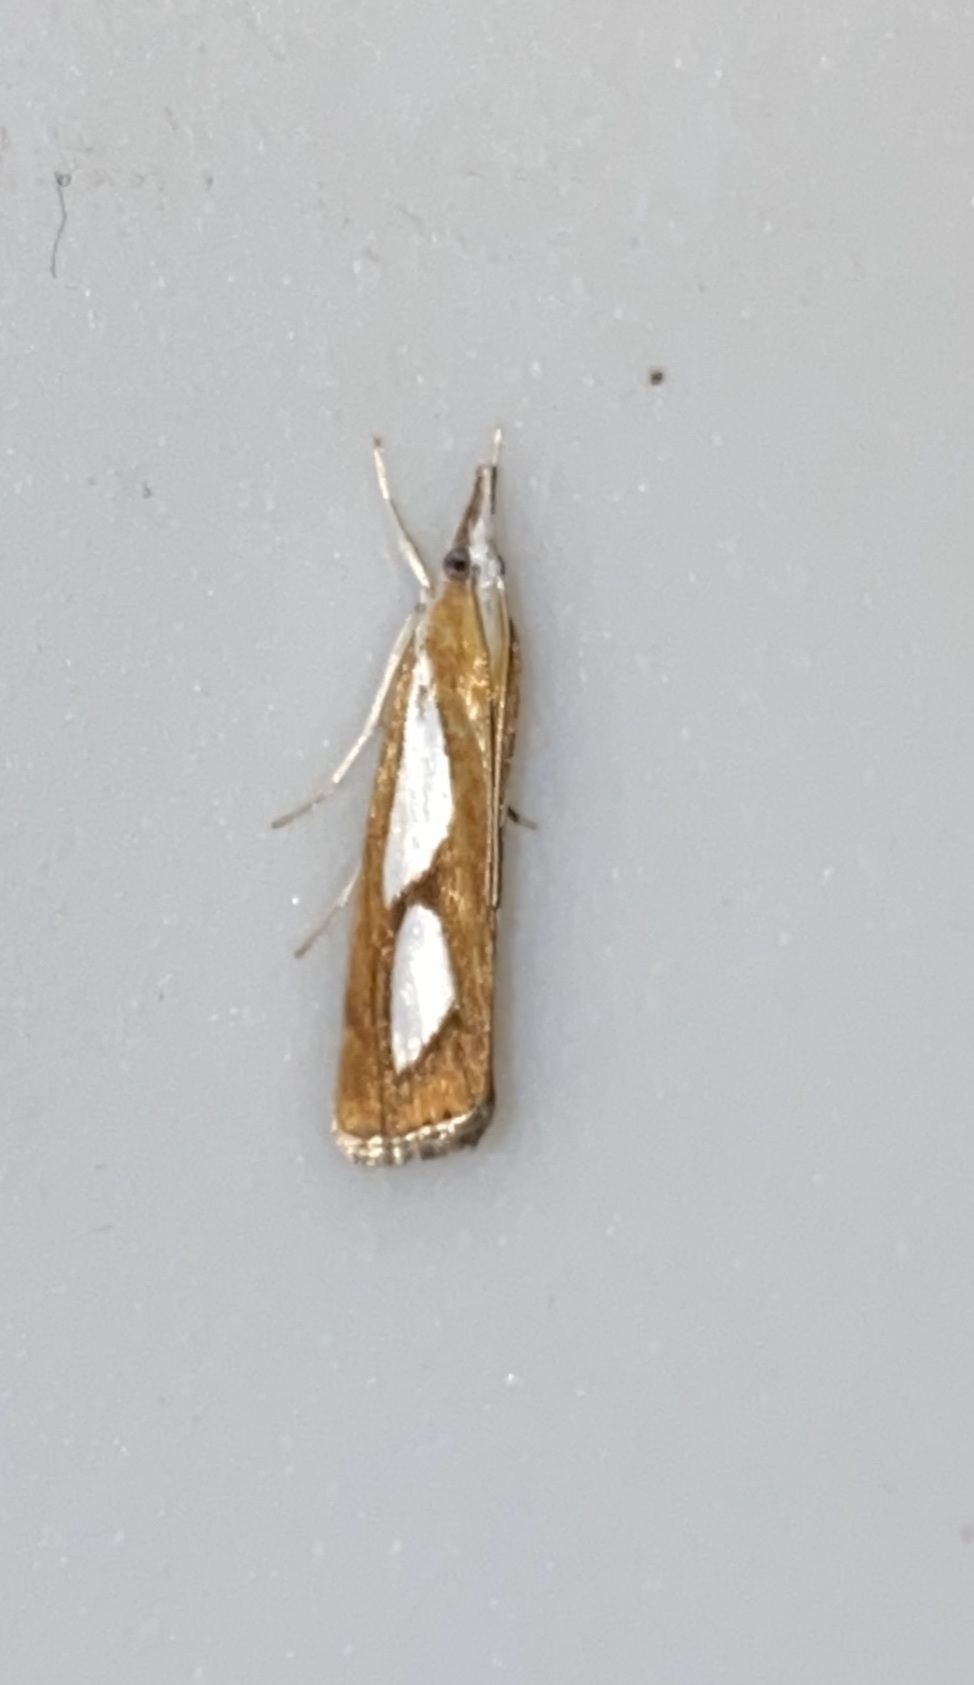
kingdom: Animalia
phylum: Arthropoda
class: Insecta
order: Lepidoptera
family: Crambidae
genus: Catoptria
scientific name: Catoptria pinella
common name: Pearl grass-veneer
